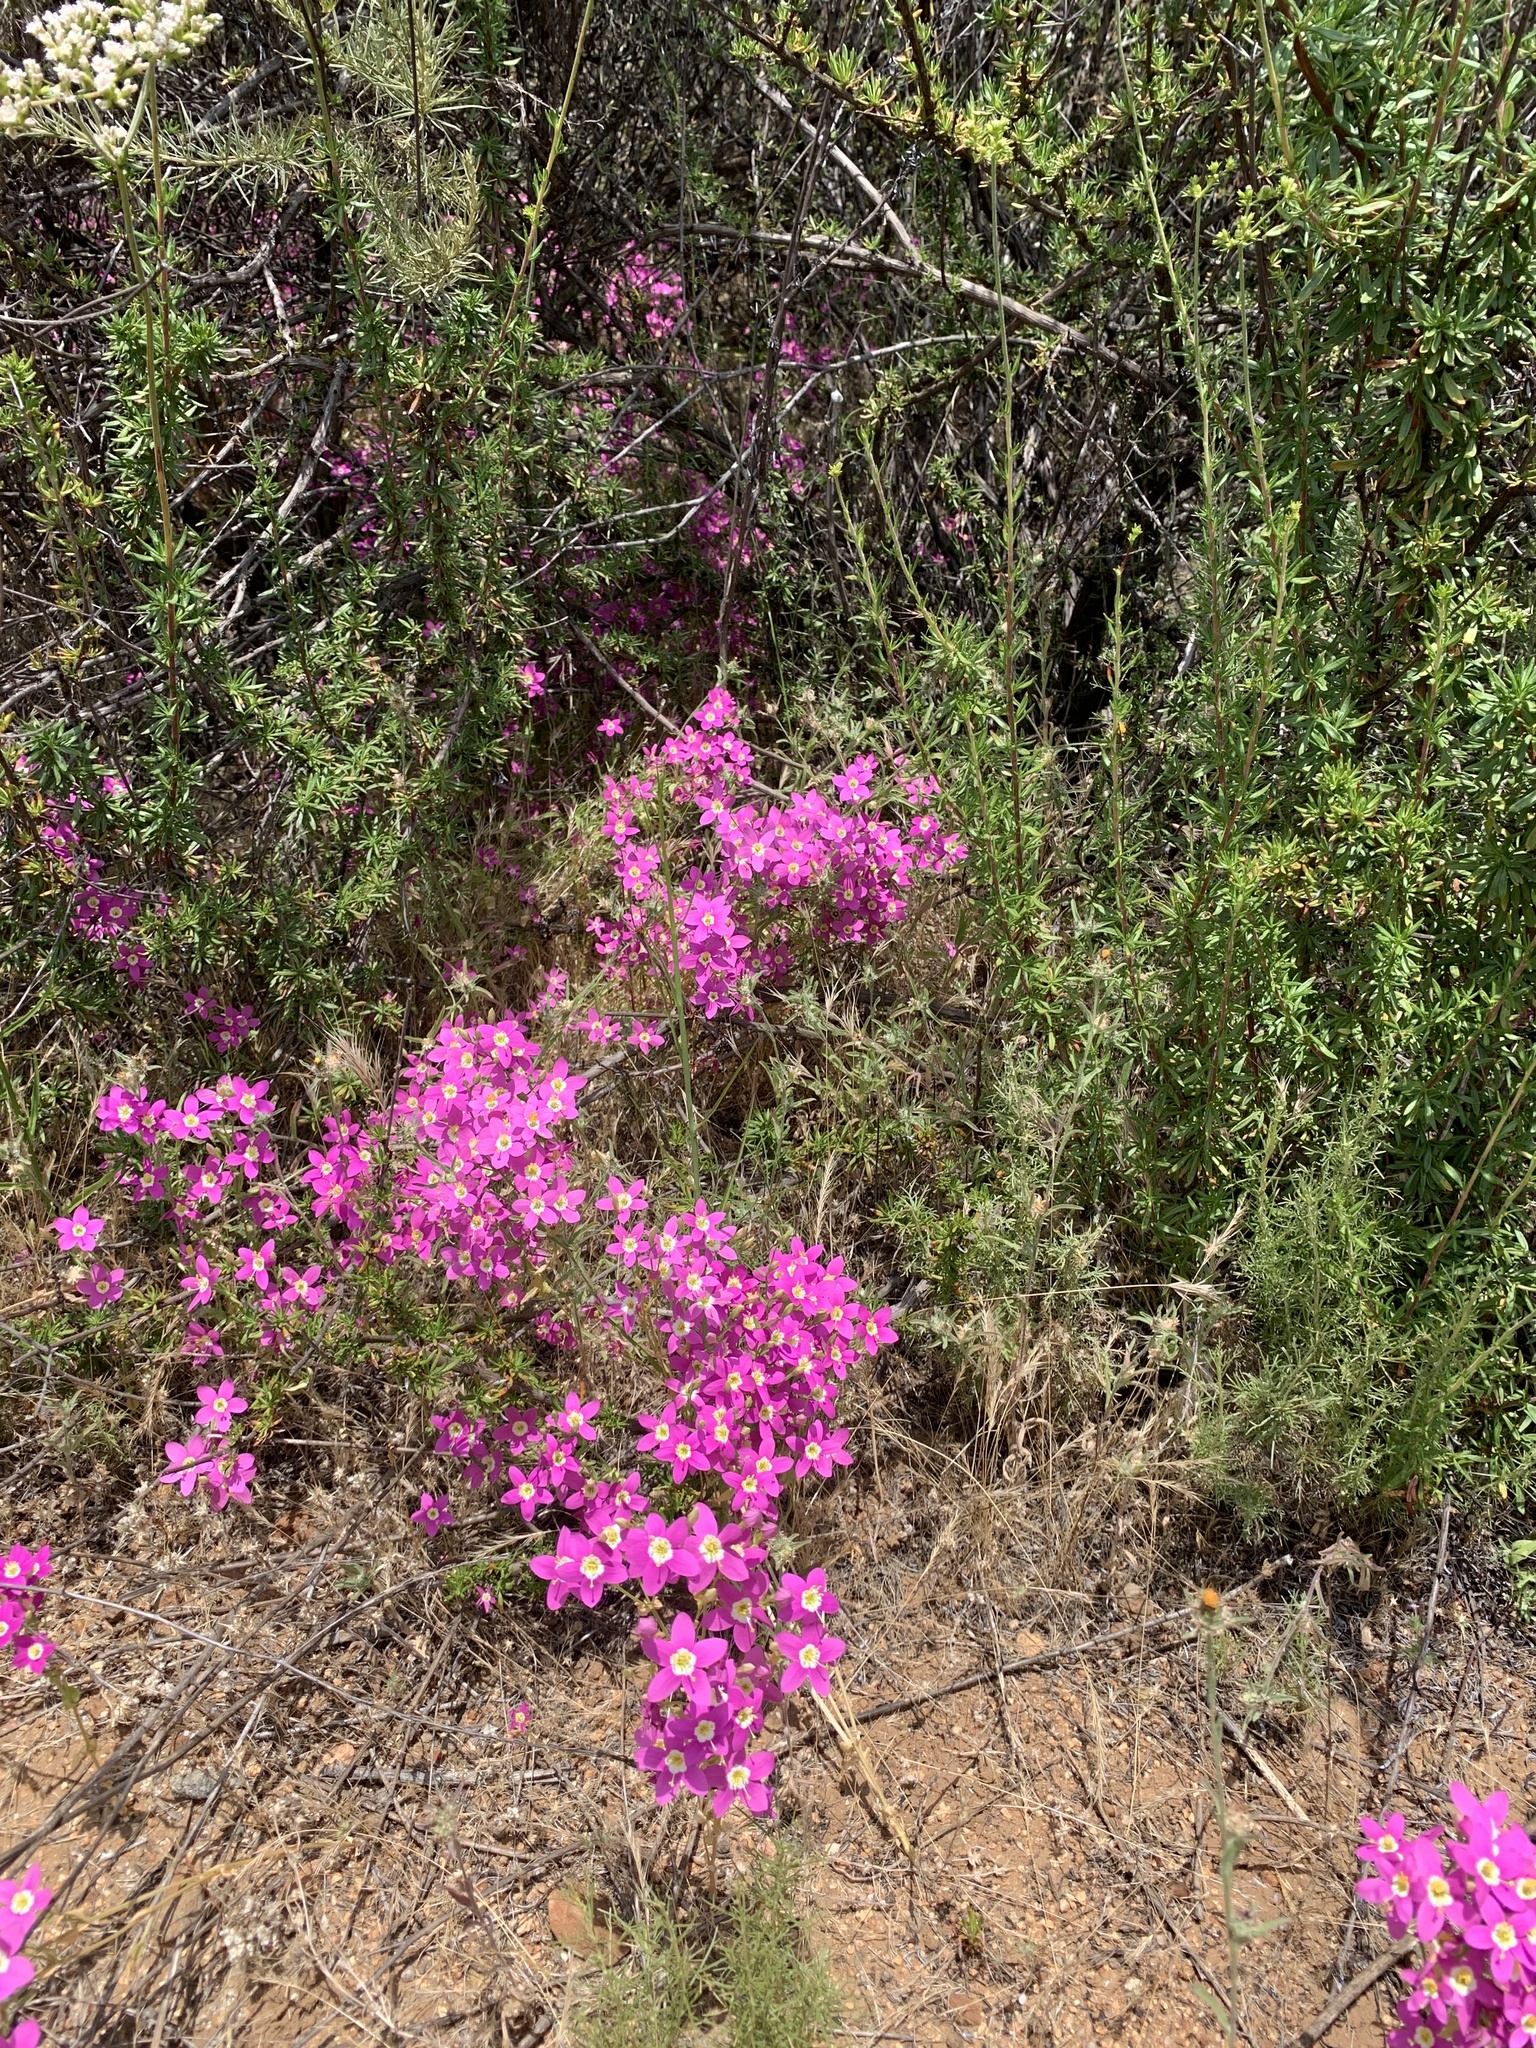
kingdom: Plantae
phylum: Tracheophyta
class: Magnoliopsida
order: Gentianales
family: Gentianaceae
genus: Zeltnera
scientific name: Zeltnera venusta
